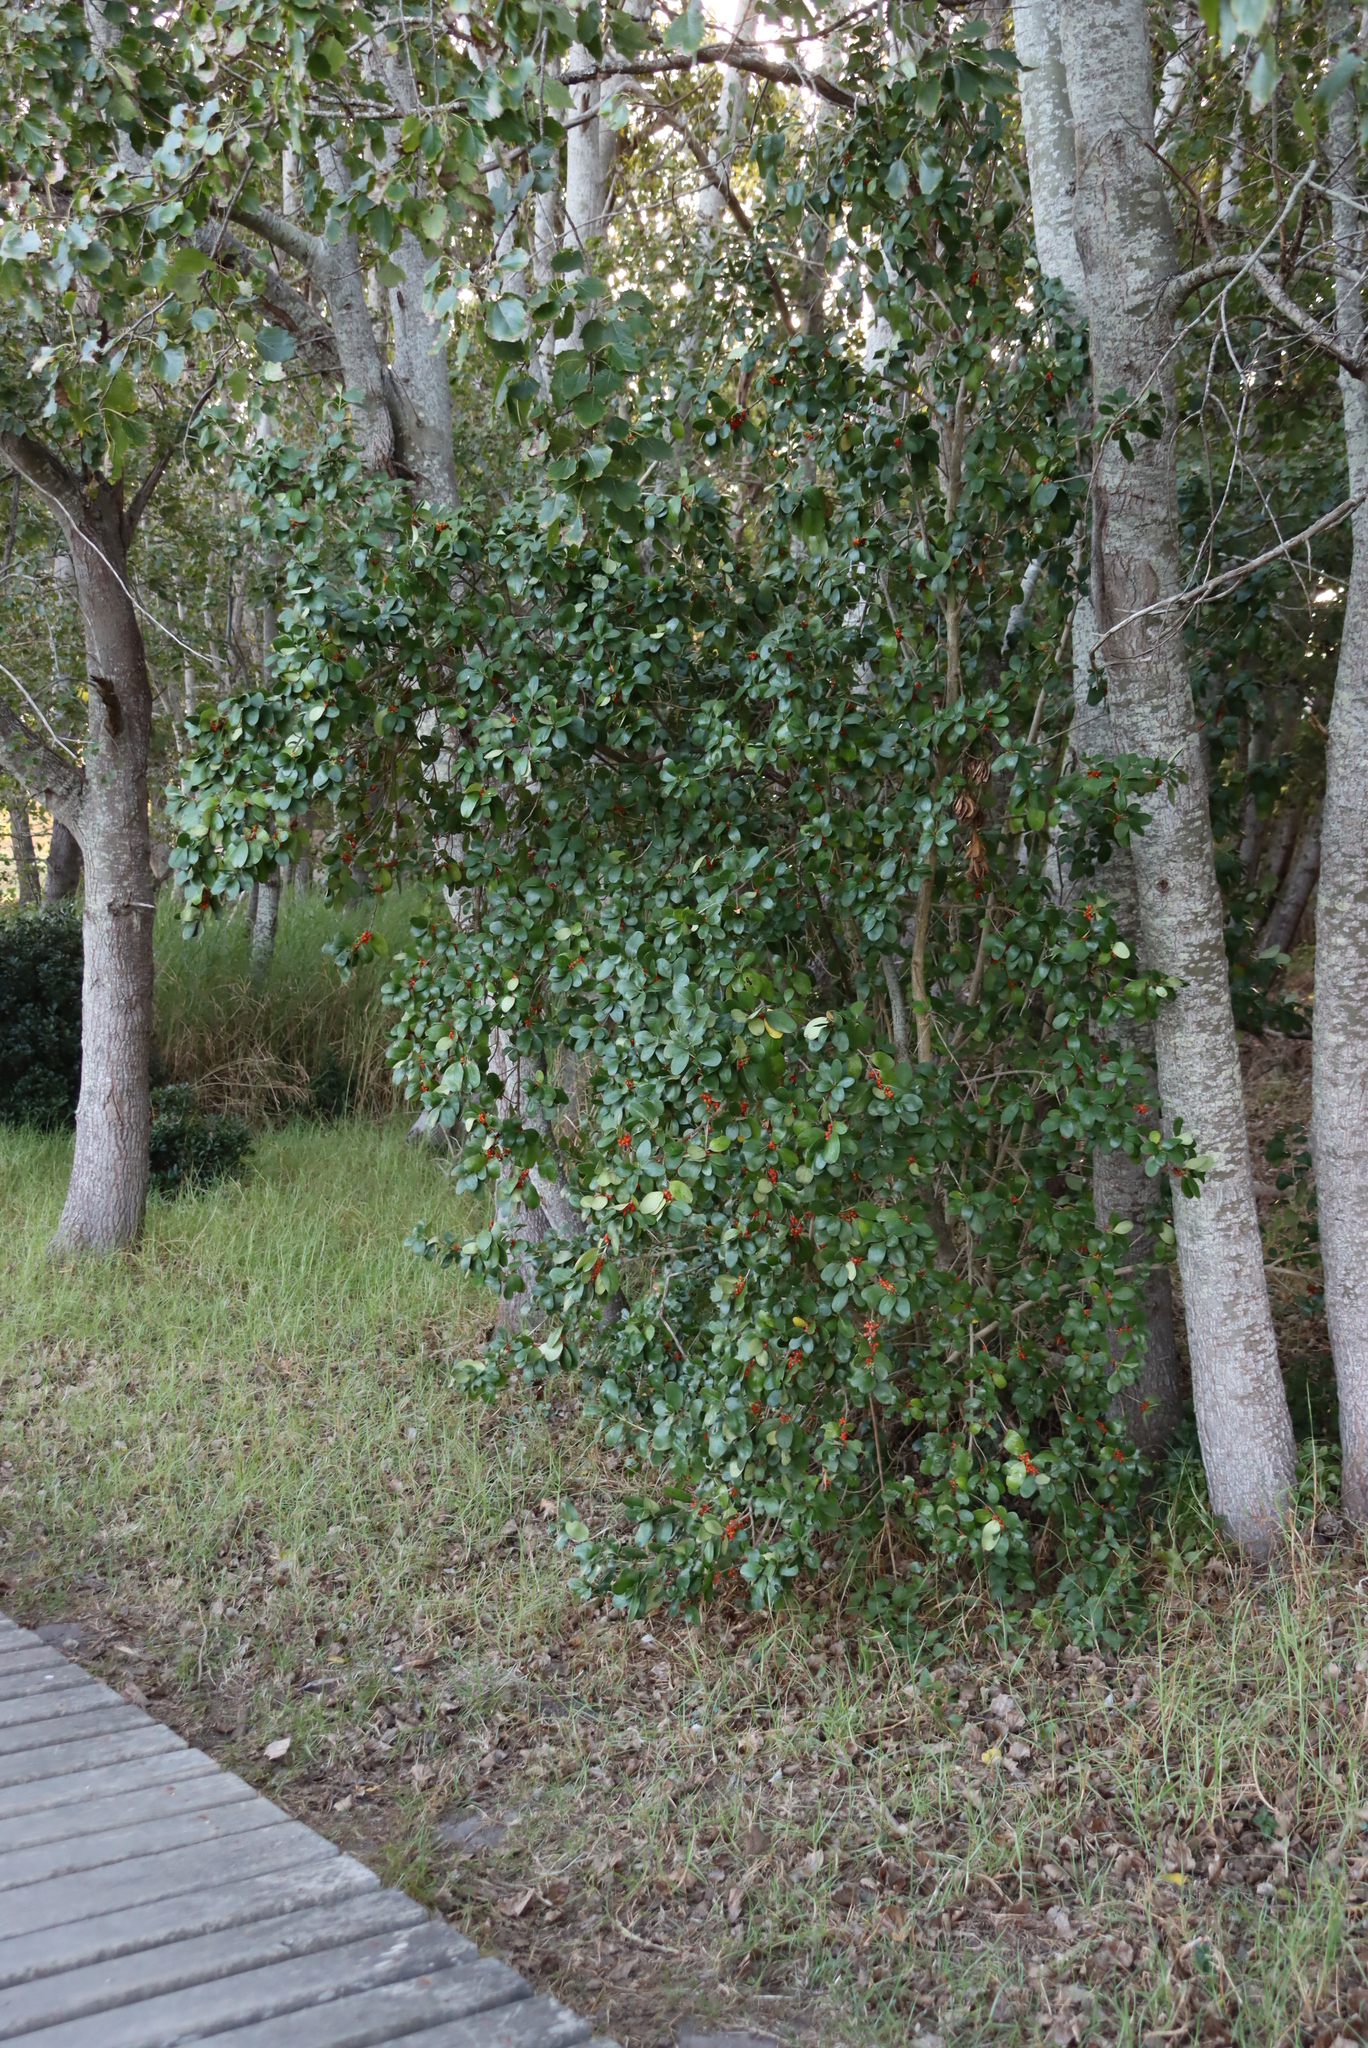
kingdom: Plantae
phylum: Tracheophyta
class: Magnoliopsida
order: Gentianales
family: Rubiaceae
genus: Coprosma
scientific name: Coprosma repens
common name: Tree bedstraw
